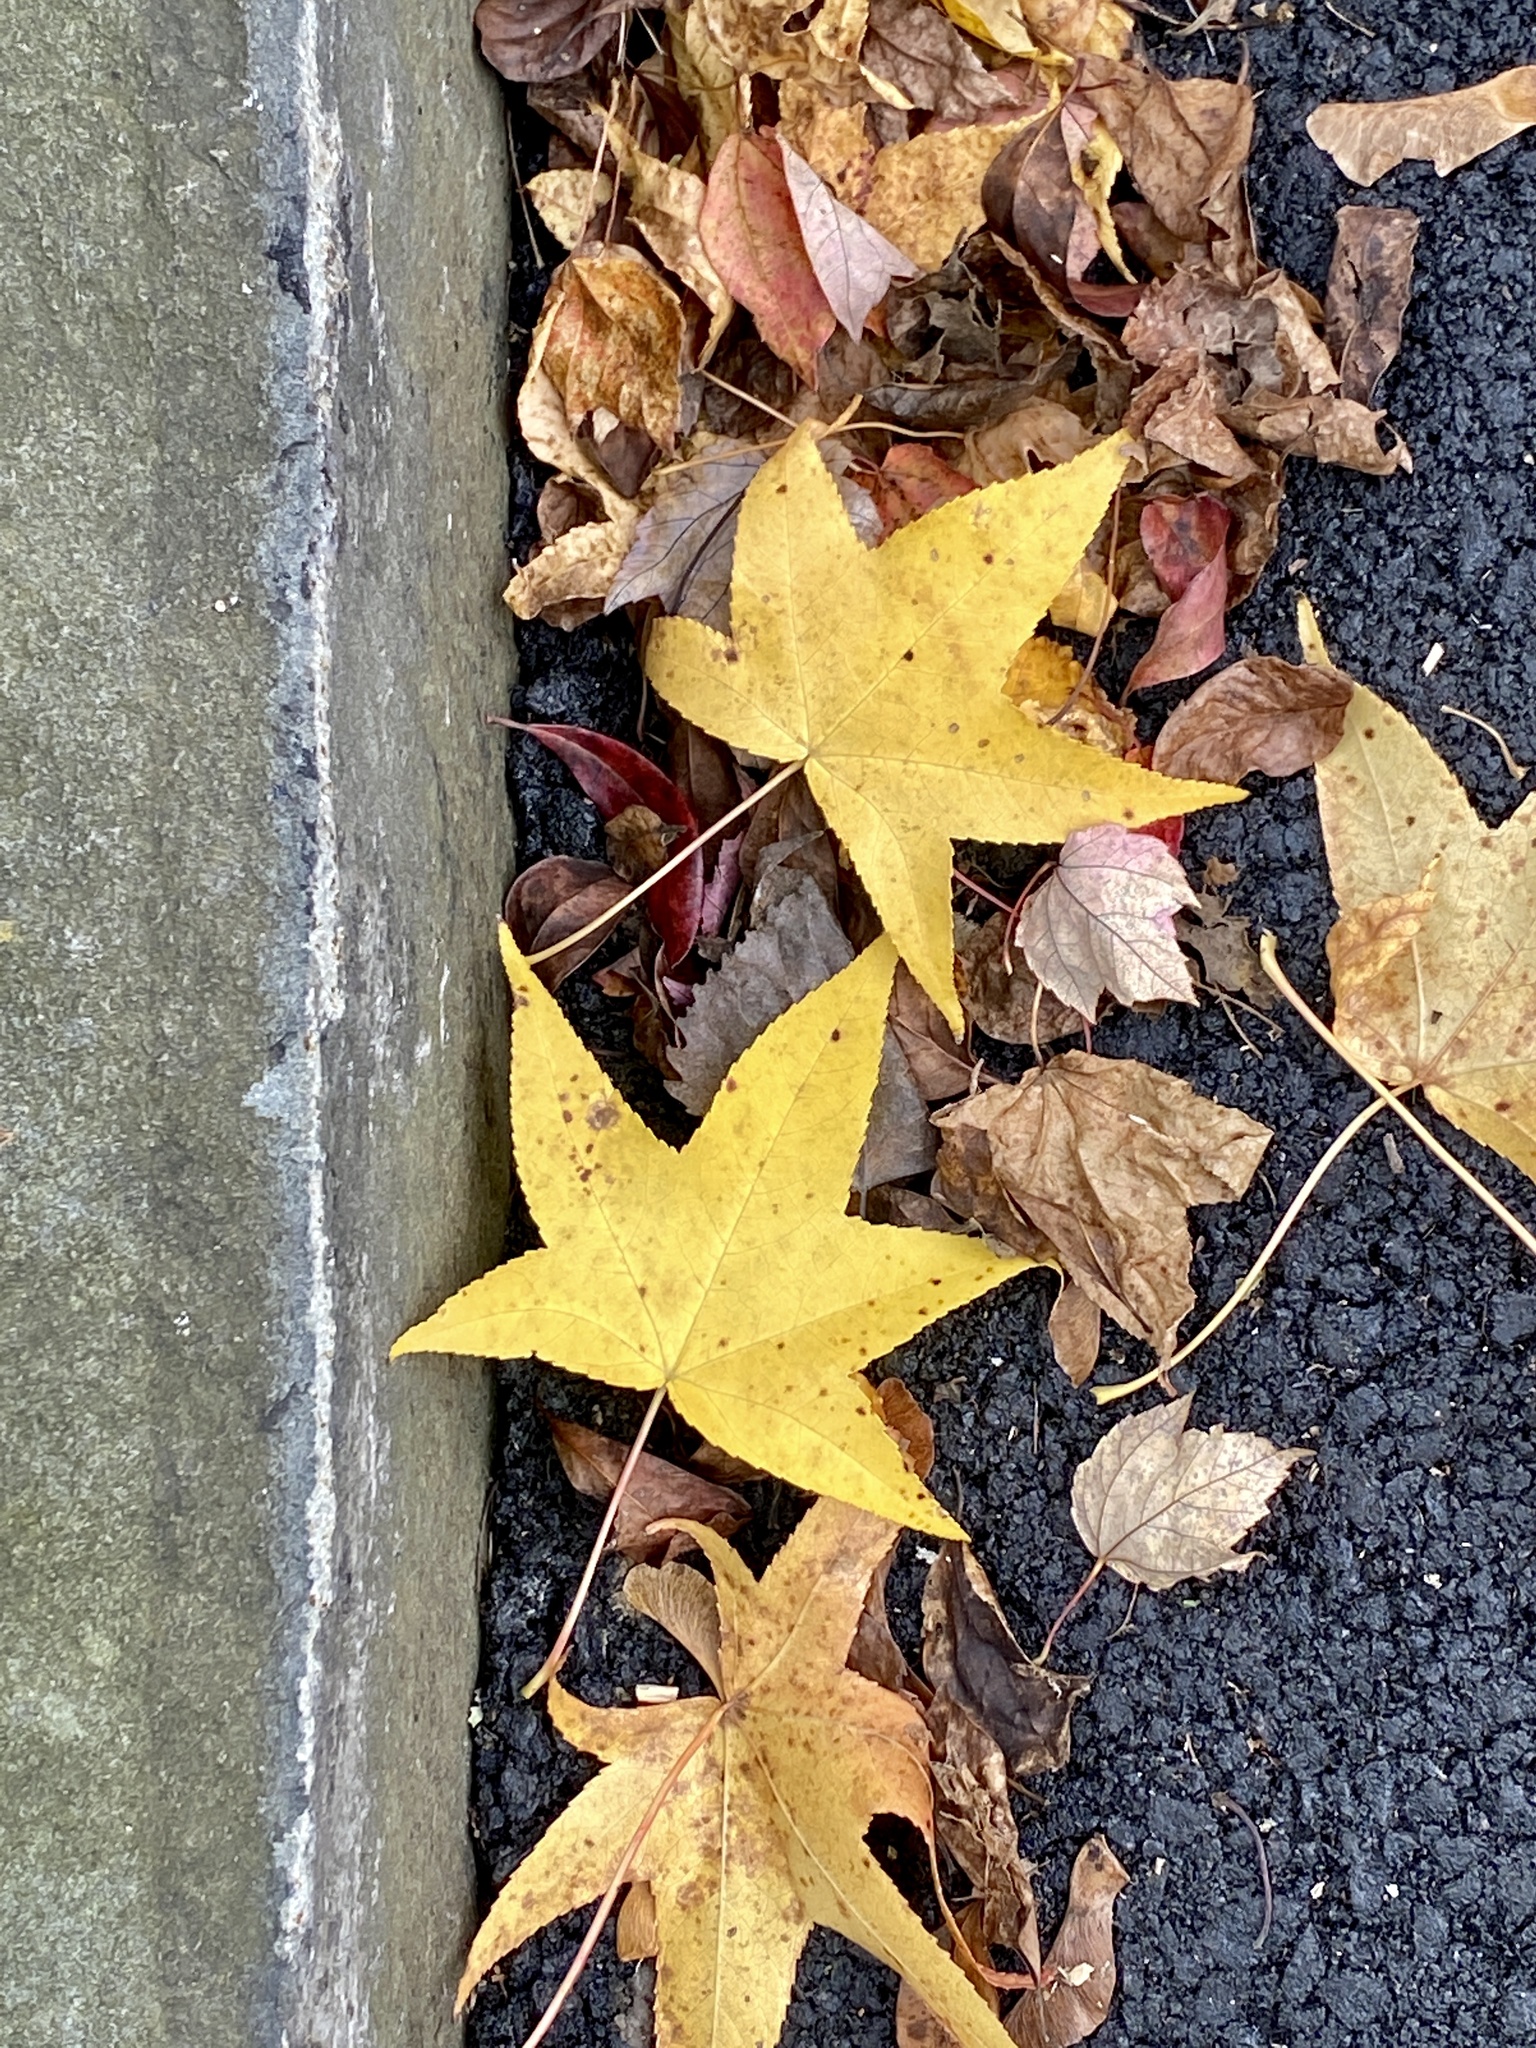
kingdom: Plantae
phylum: Tracheophyta
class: Magnoliopsida
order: Saxifragales
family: Altingiaceae
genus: Liquidambar
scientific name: Liquidambar styraciflua
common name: Sweet gum
